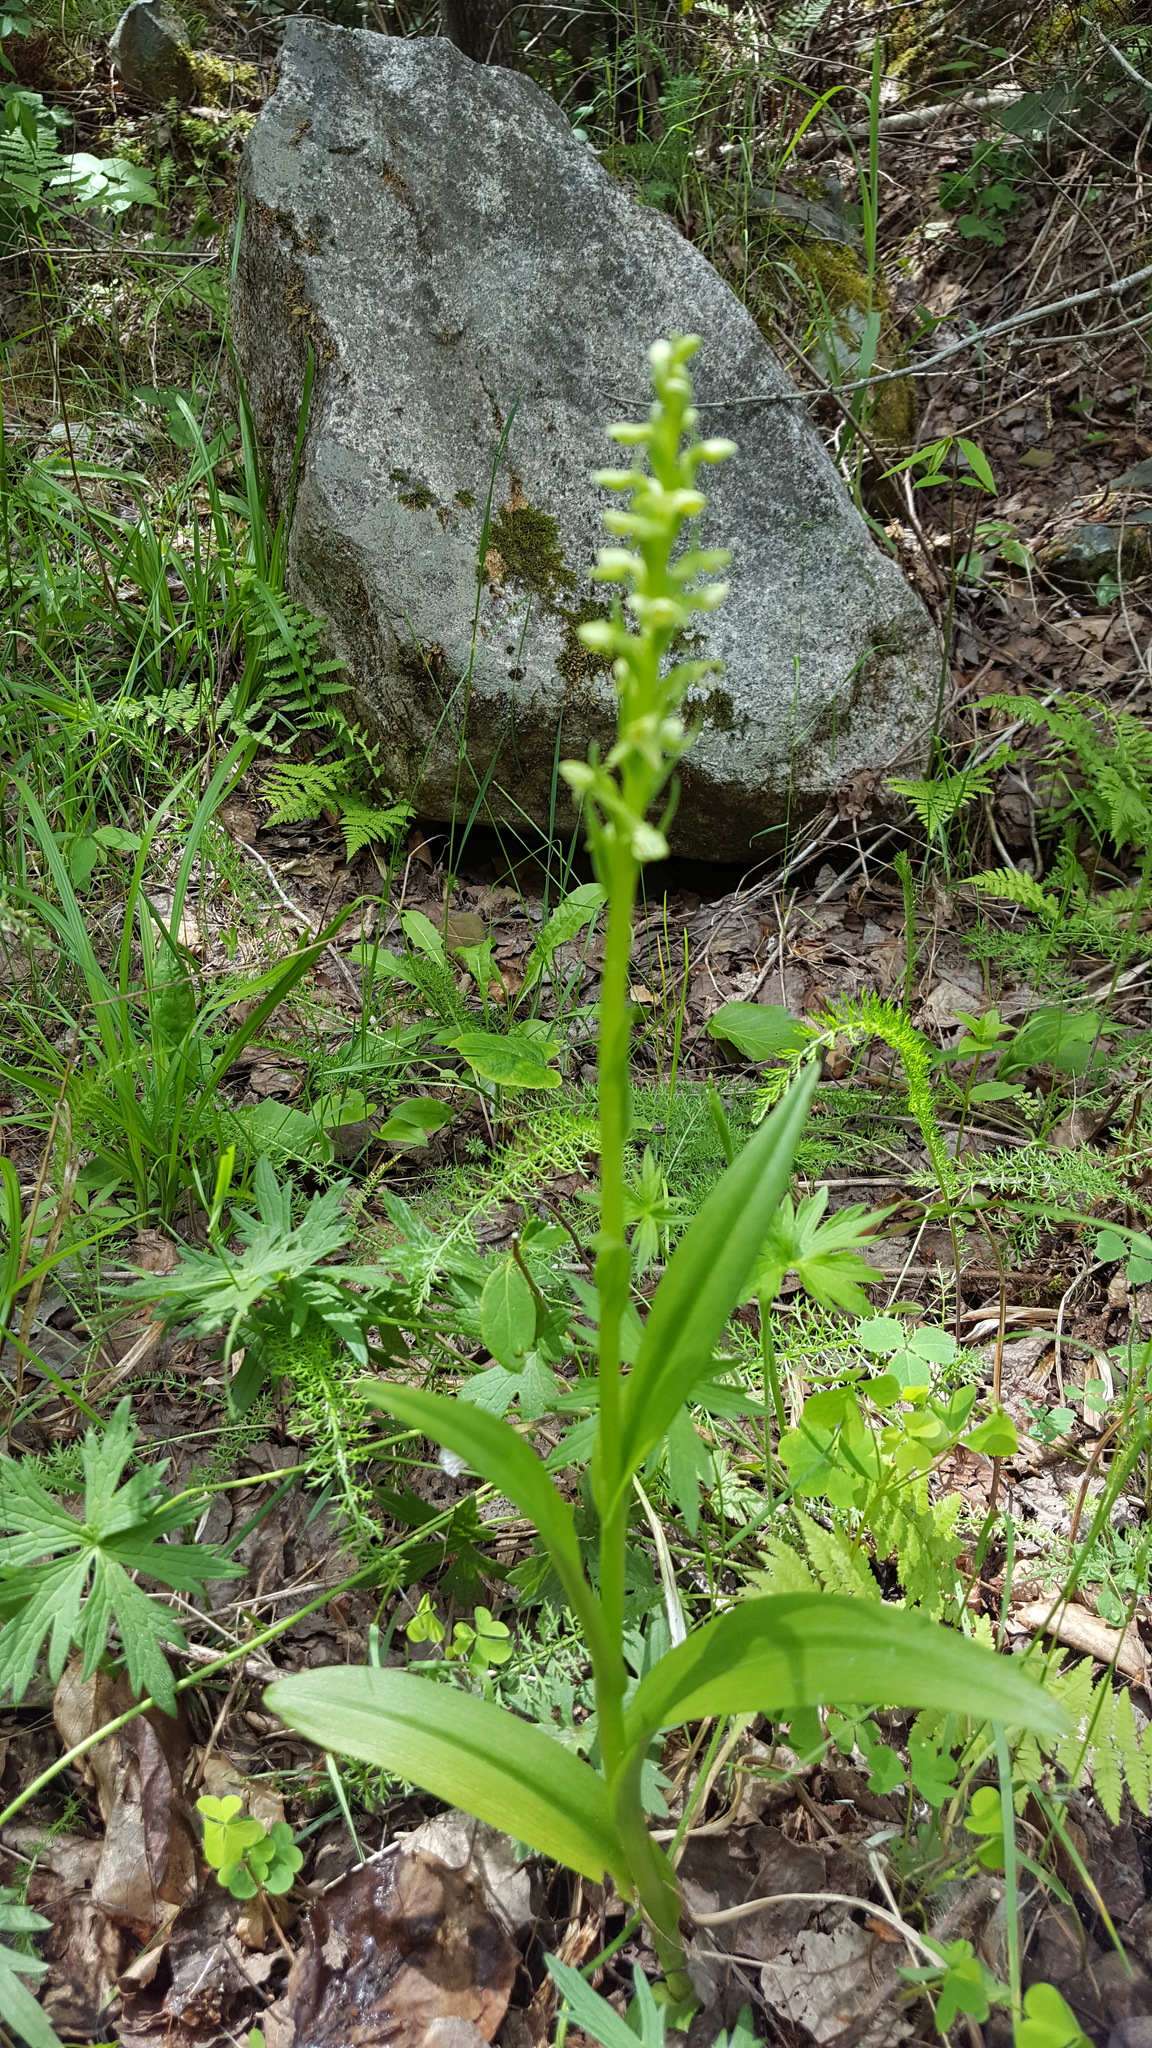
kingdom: Plantae
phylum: Tracheophyta
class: Liliopsida
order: Asparagales
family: Orchidaceae
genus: Platanthera
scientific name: Platanthera huronensis
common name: Fragrant green orchid
